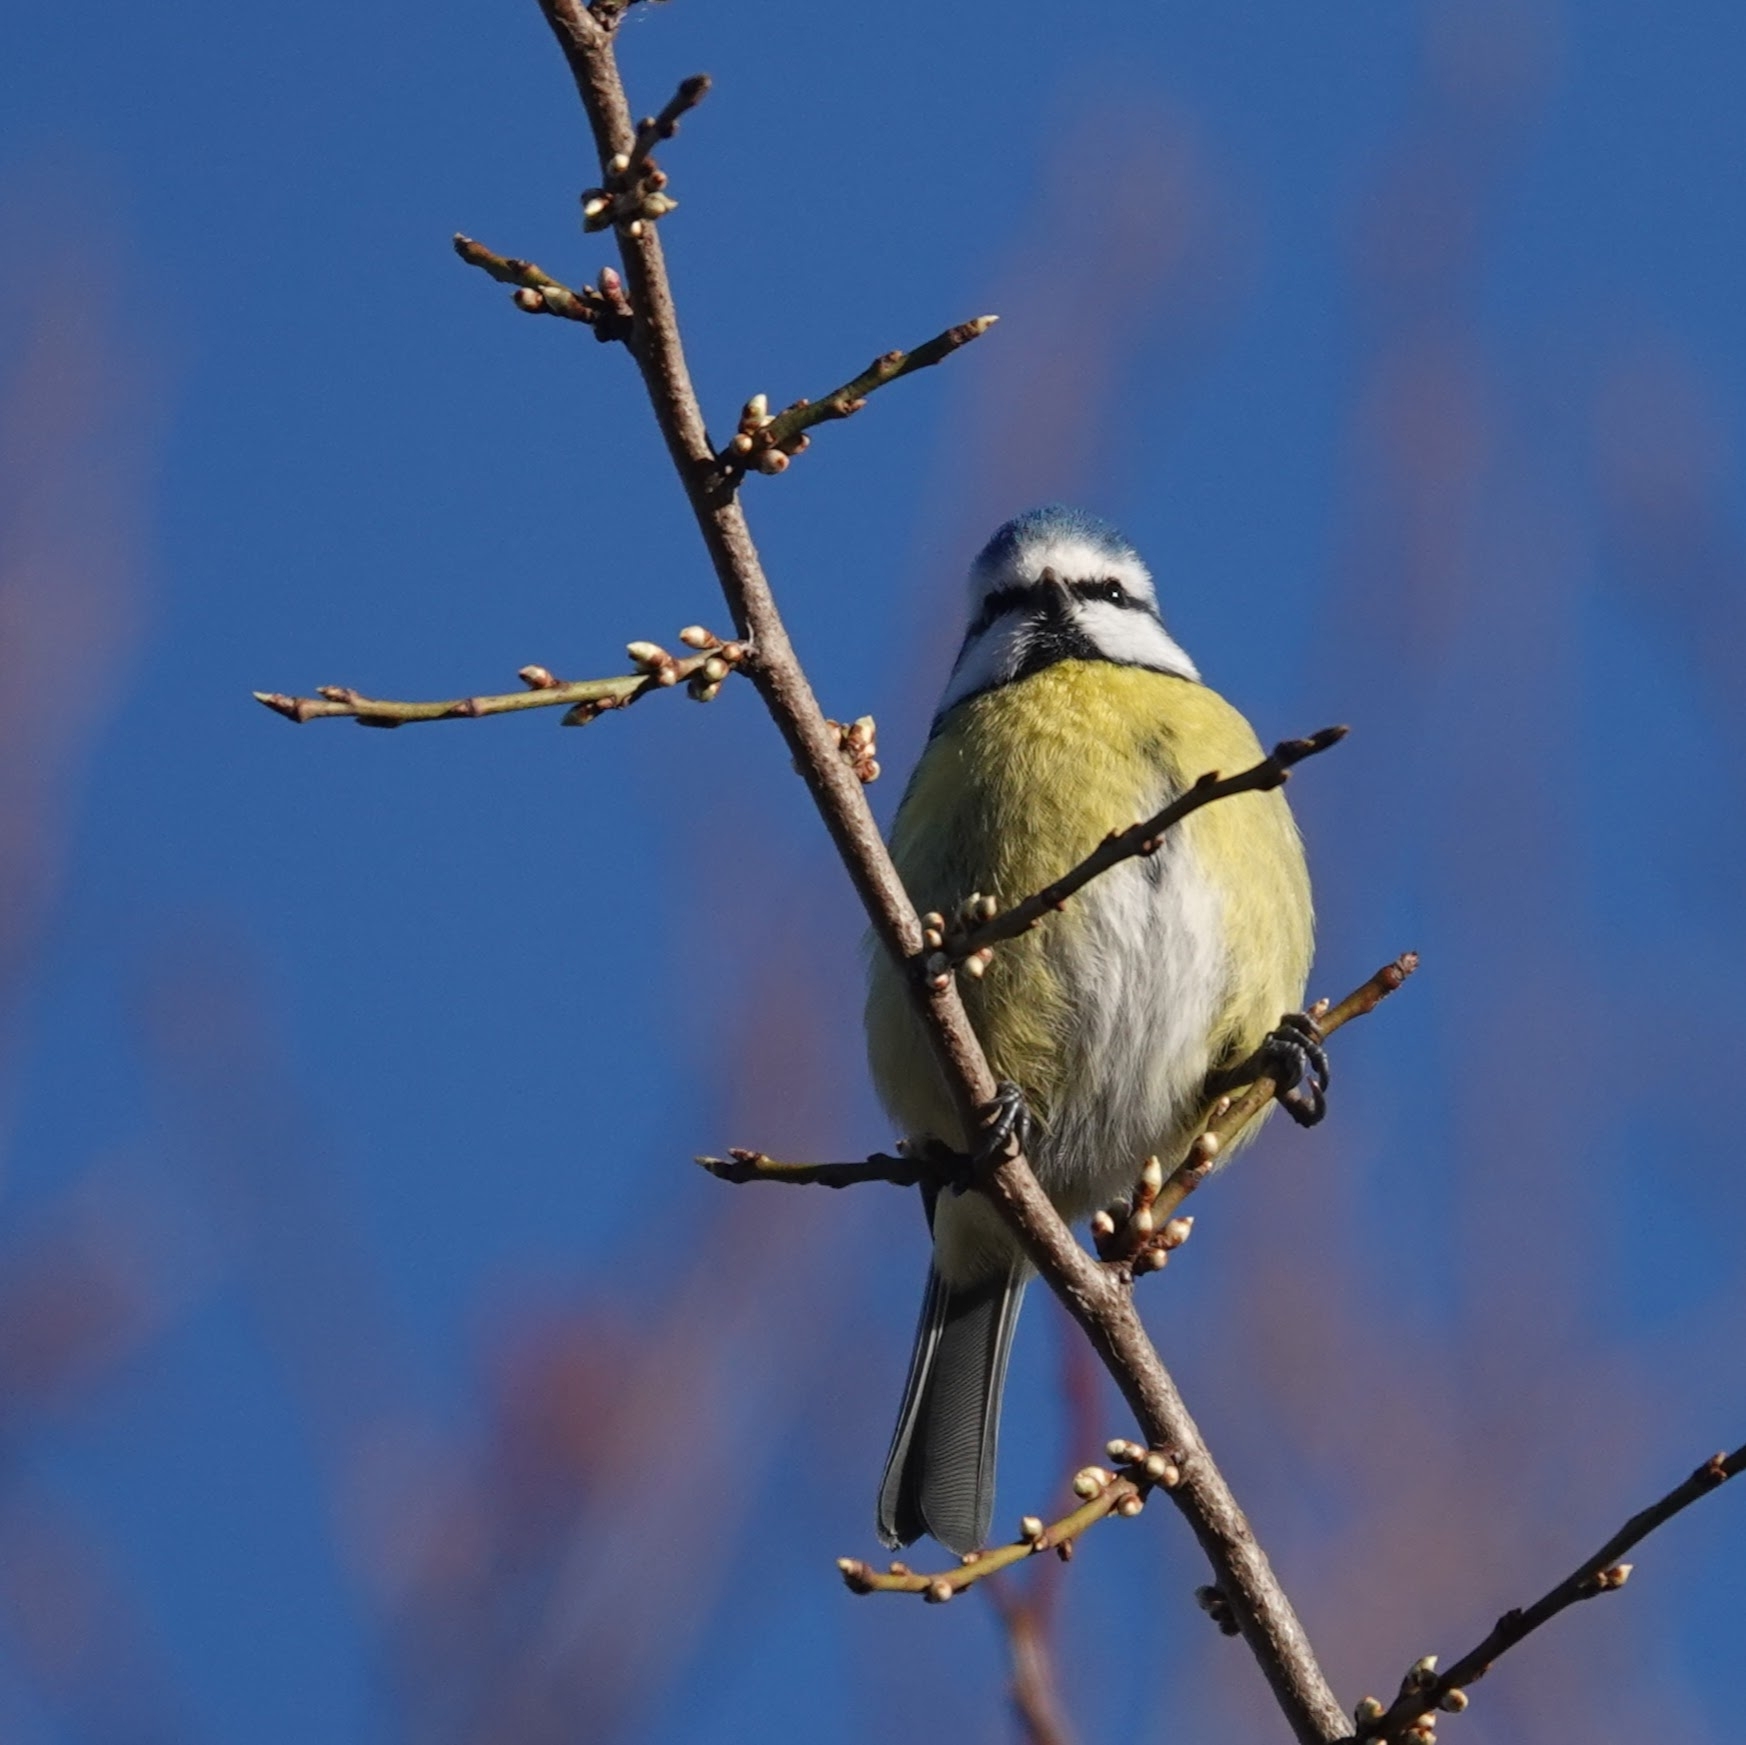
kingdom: Animalia
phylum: Chordata
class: Aves
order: Passeriformes
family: Paridae
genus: Cyanistes
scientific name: Cyanistes caeruleus
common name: Eurasian blue tit
